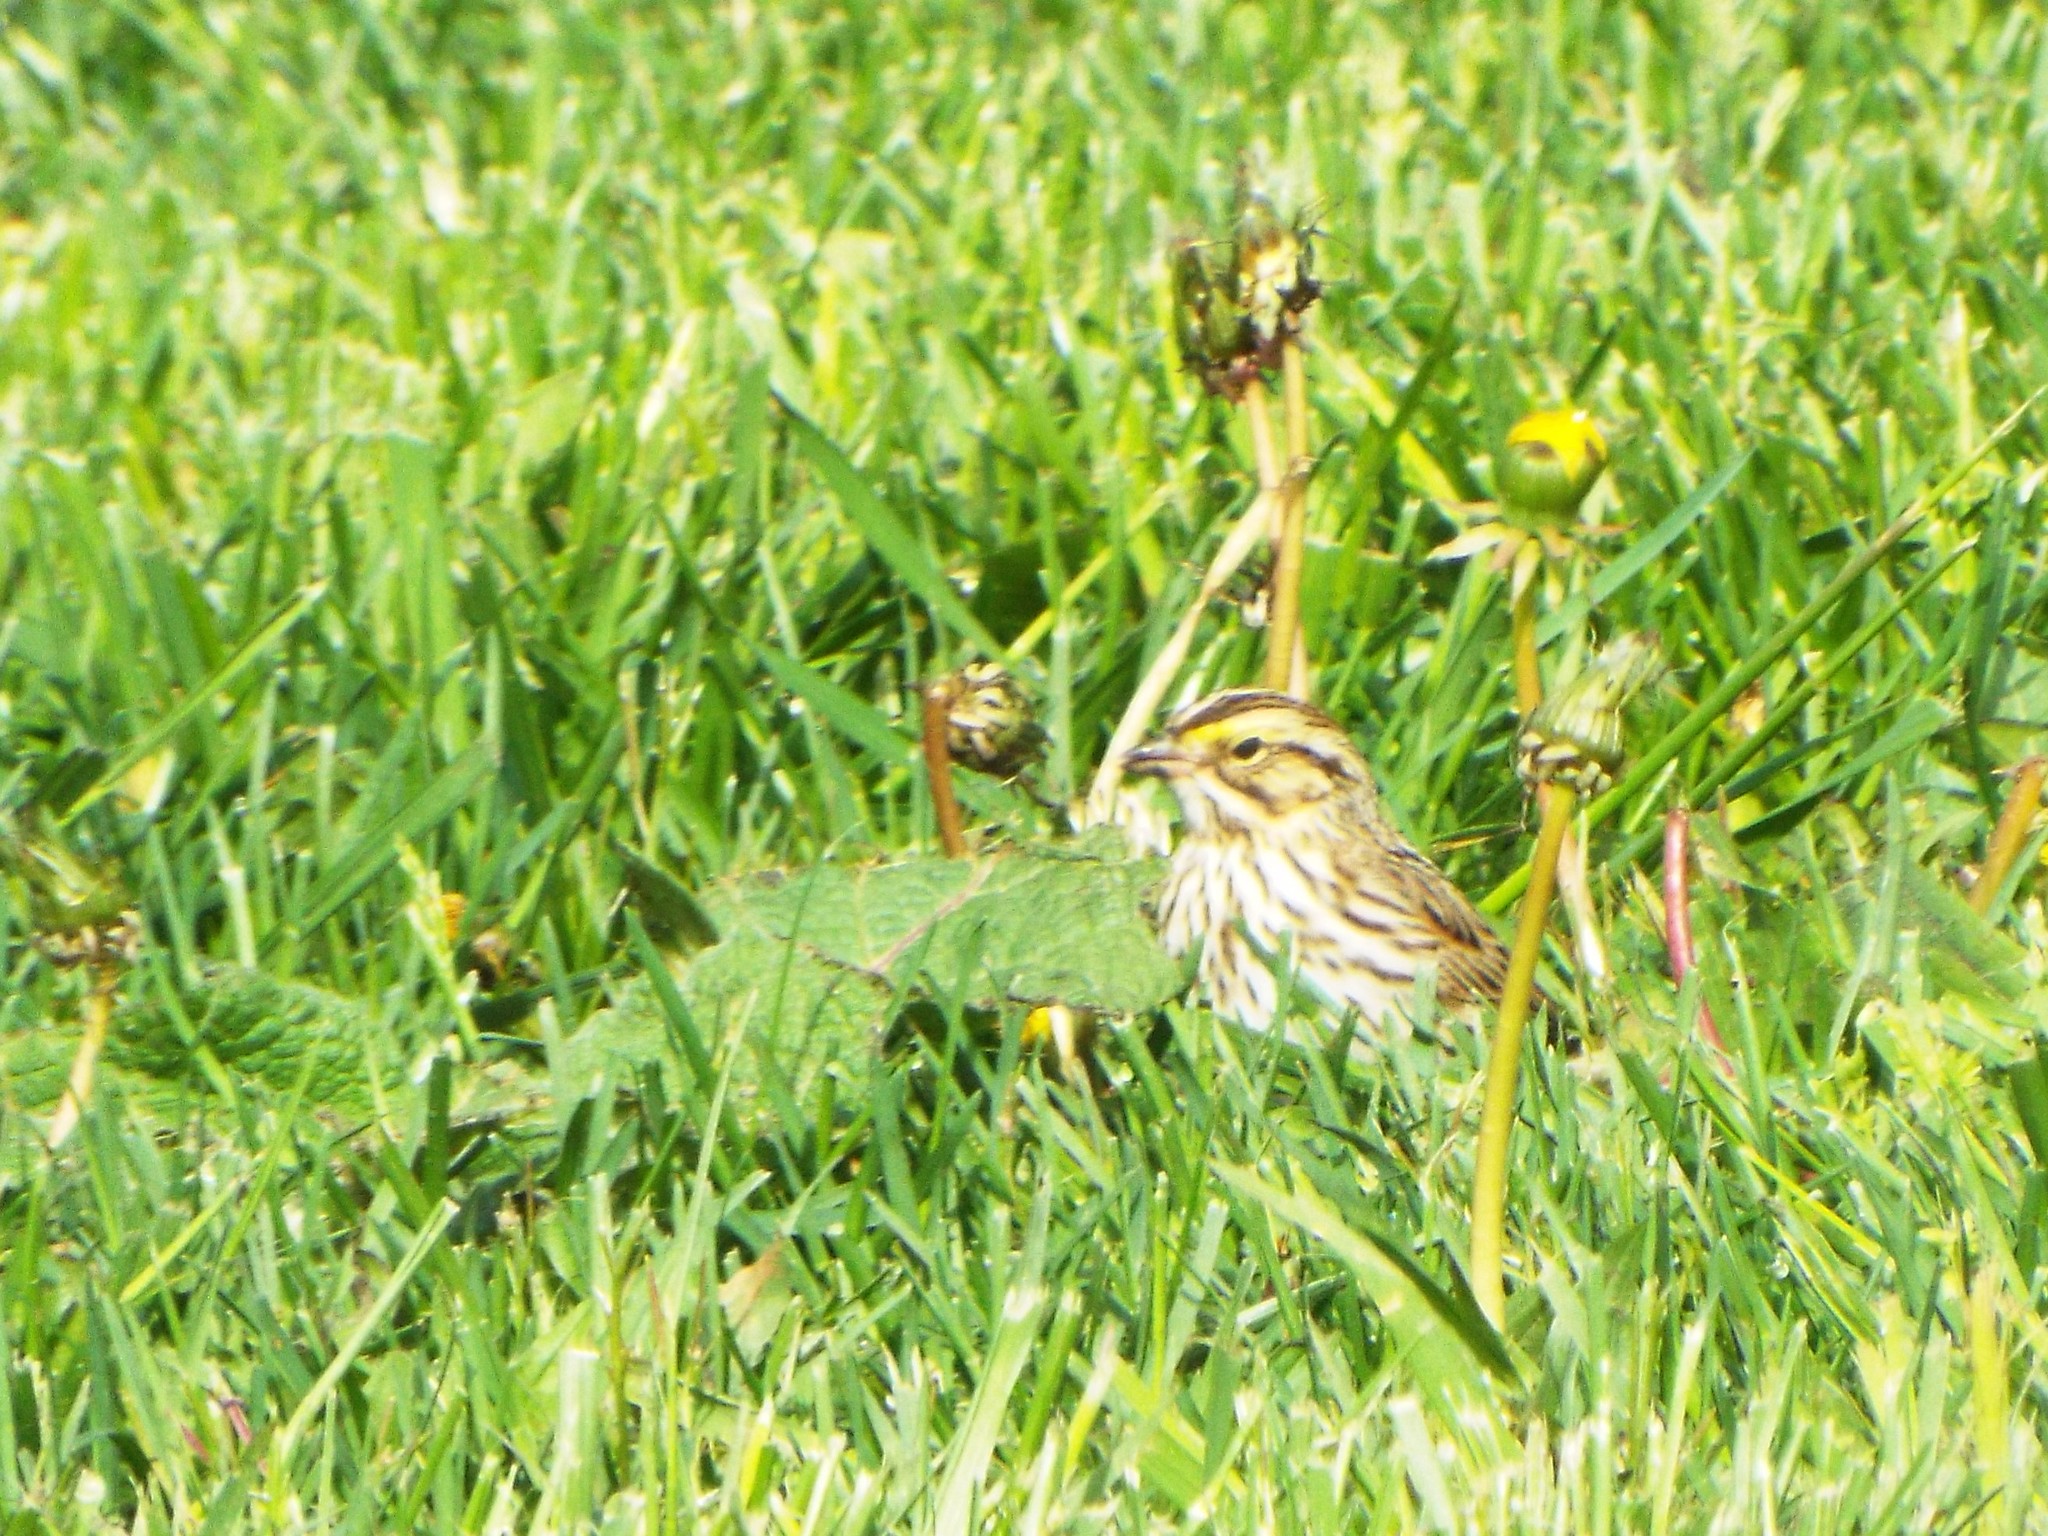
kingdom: Animalia
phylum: Chordata
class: Aves
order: Passeriformes
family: Passerellidae
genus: Passerculus
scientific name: Passerculus sandwichensis
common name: Savannah sparrow
